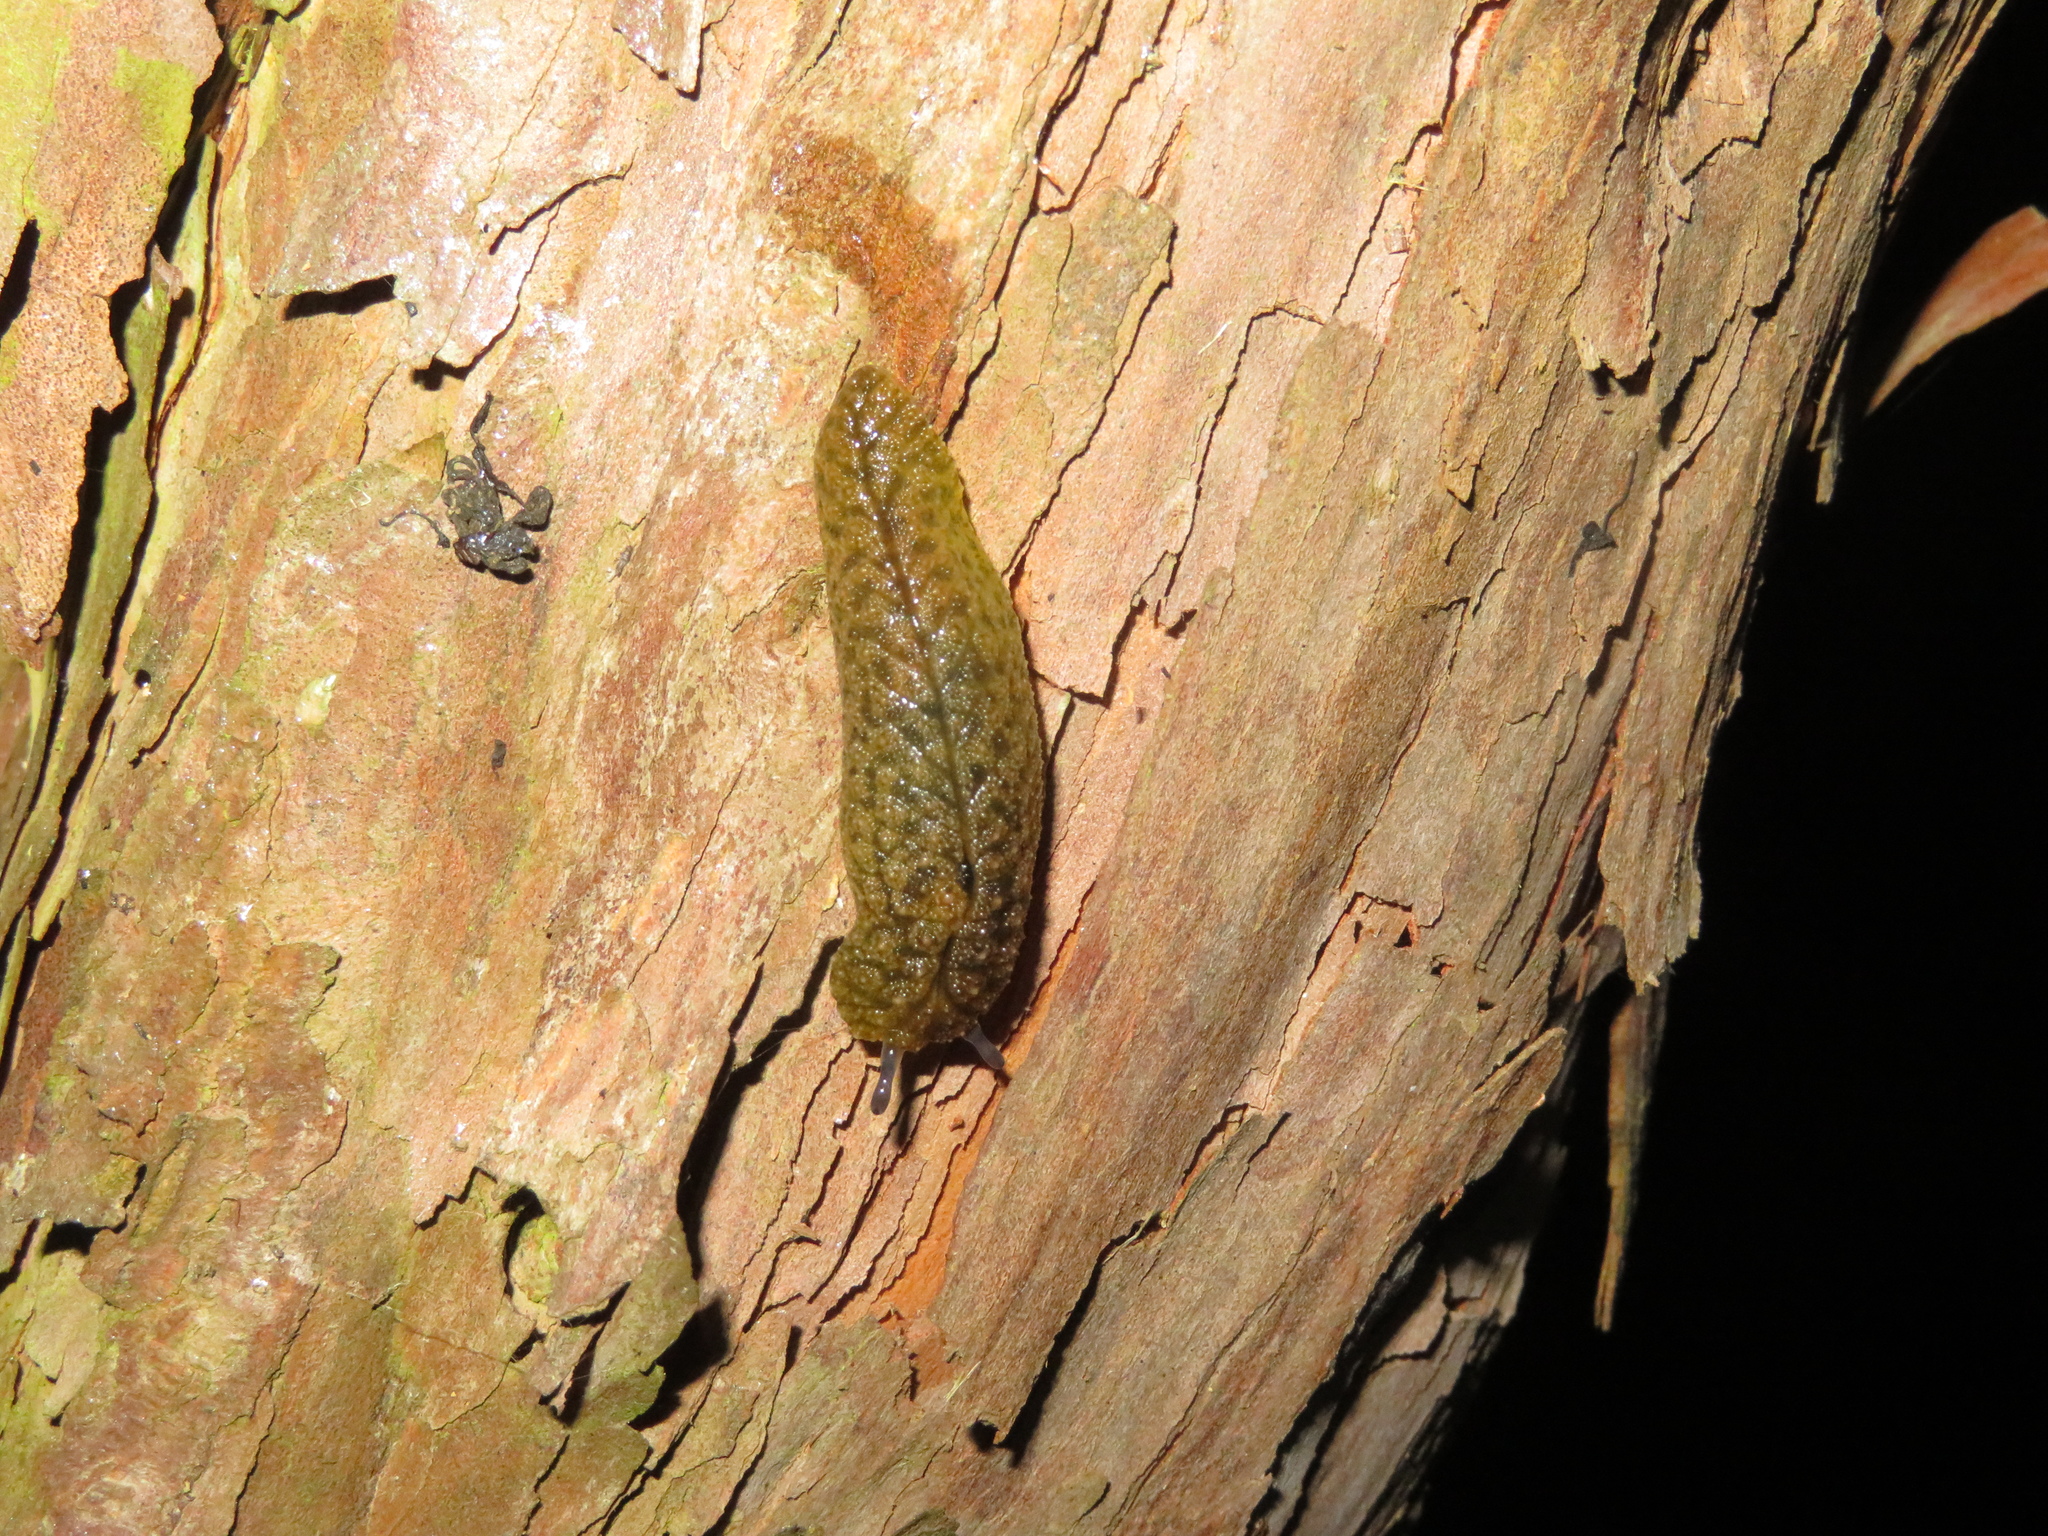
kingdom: Animalia
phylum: Mollusca
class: Gastropoda
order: Stylommatophora
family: Athoracophoridae
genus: Athoracophorus
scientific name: Athoracophorus papillatus
